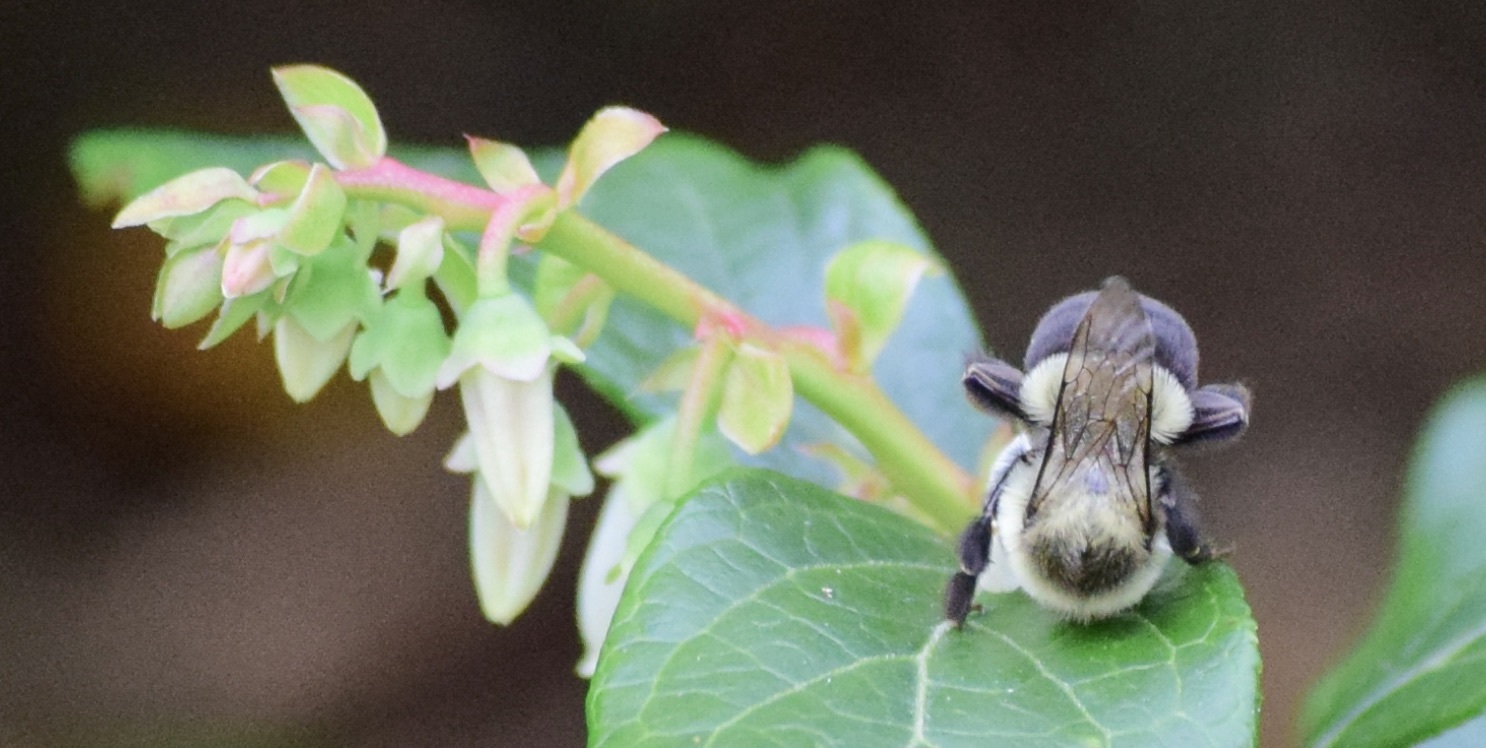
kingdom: Animalia
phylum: Arthropoda
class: Insecta
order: Hymenoptera
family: Apidae
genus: Bombus
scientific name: Bombus impatiens
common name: Common eastern bumble bee
